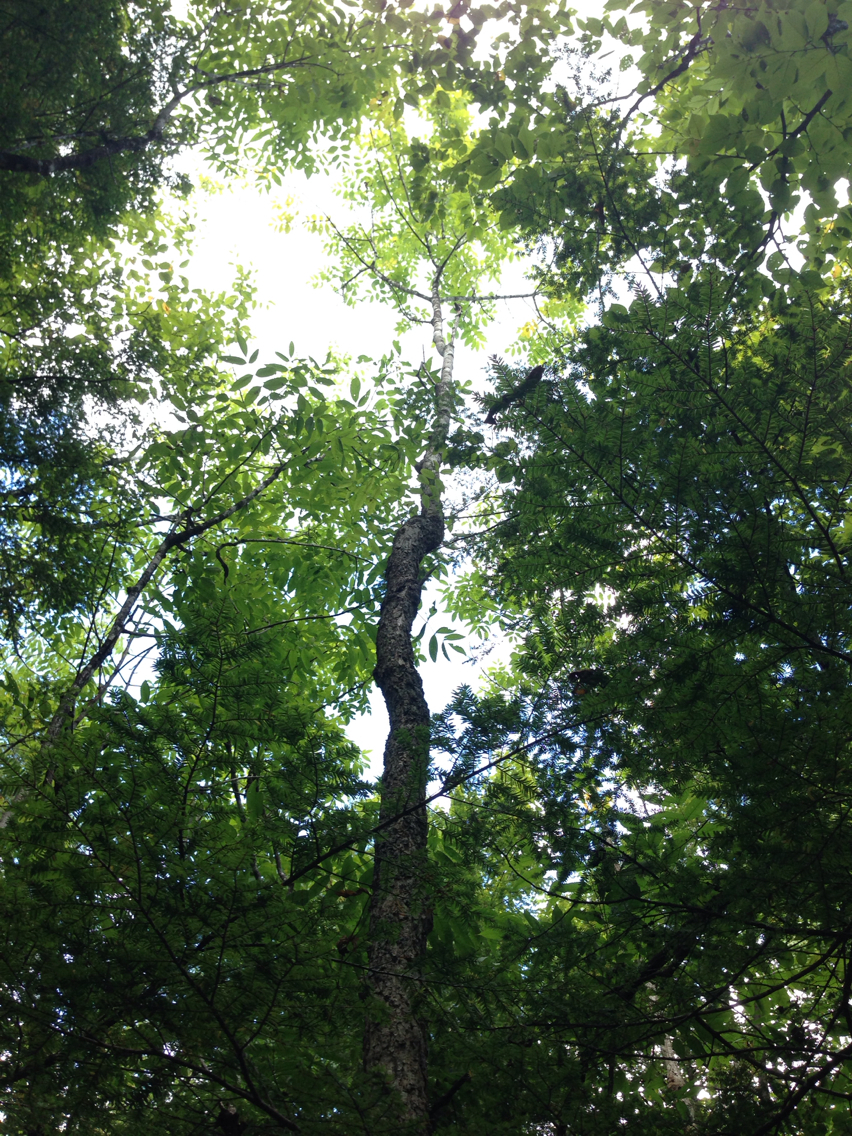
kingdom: Plantae
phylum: Tracheophyta
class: Magnoliopsida
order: Lamiales
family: Oleaceae
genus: Fraxinus
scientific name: Fraxinus nigra
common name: Black ash
